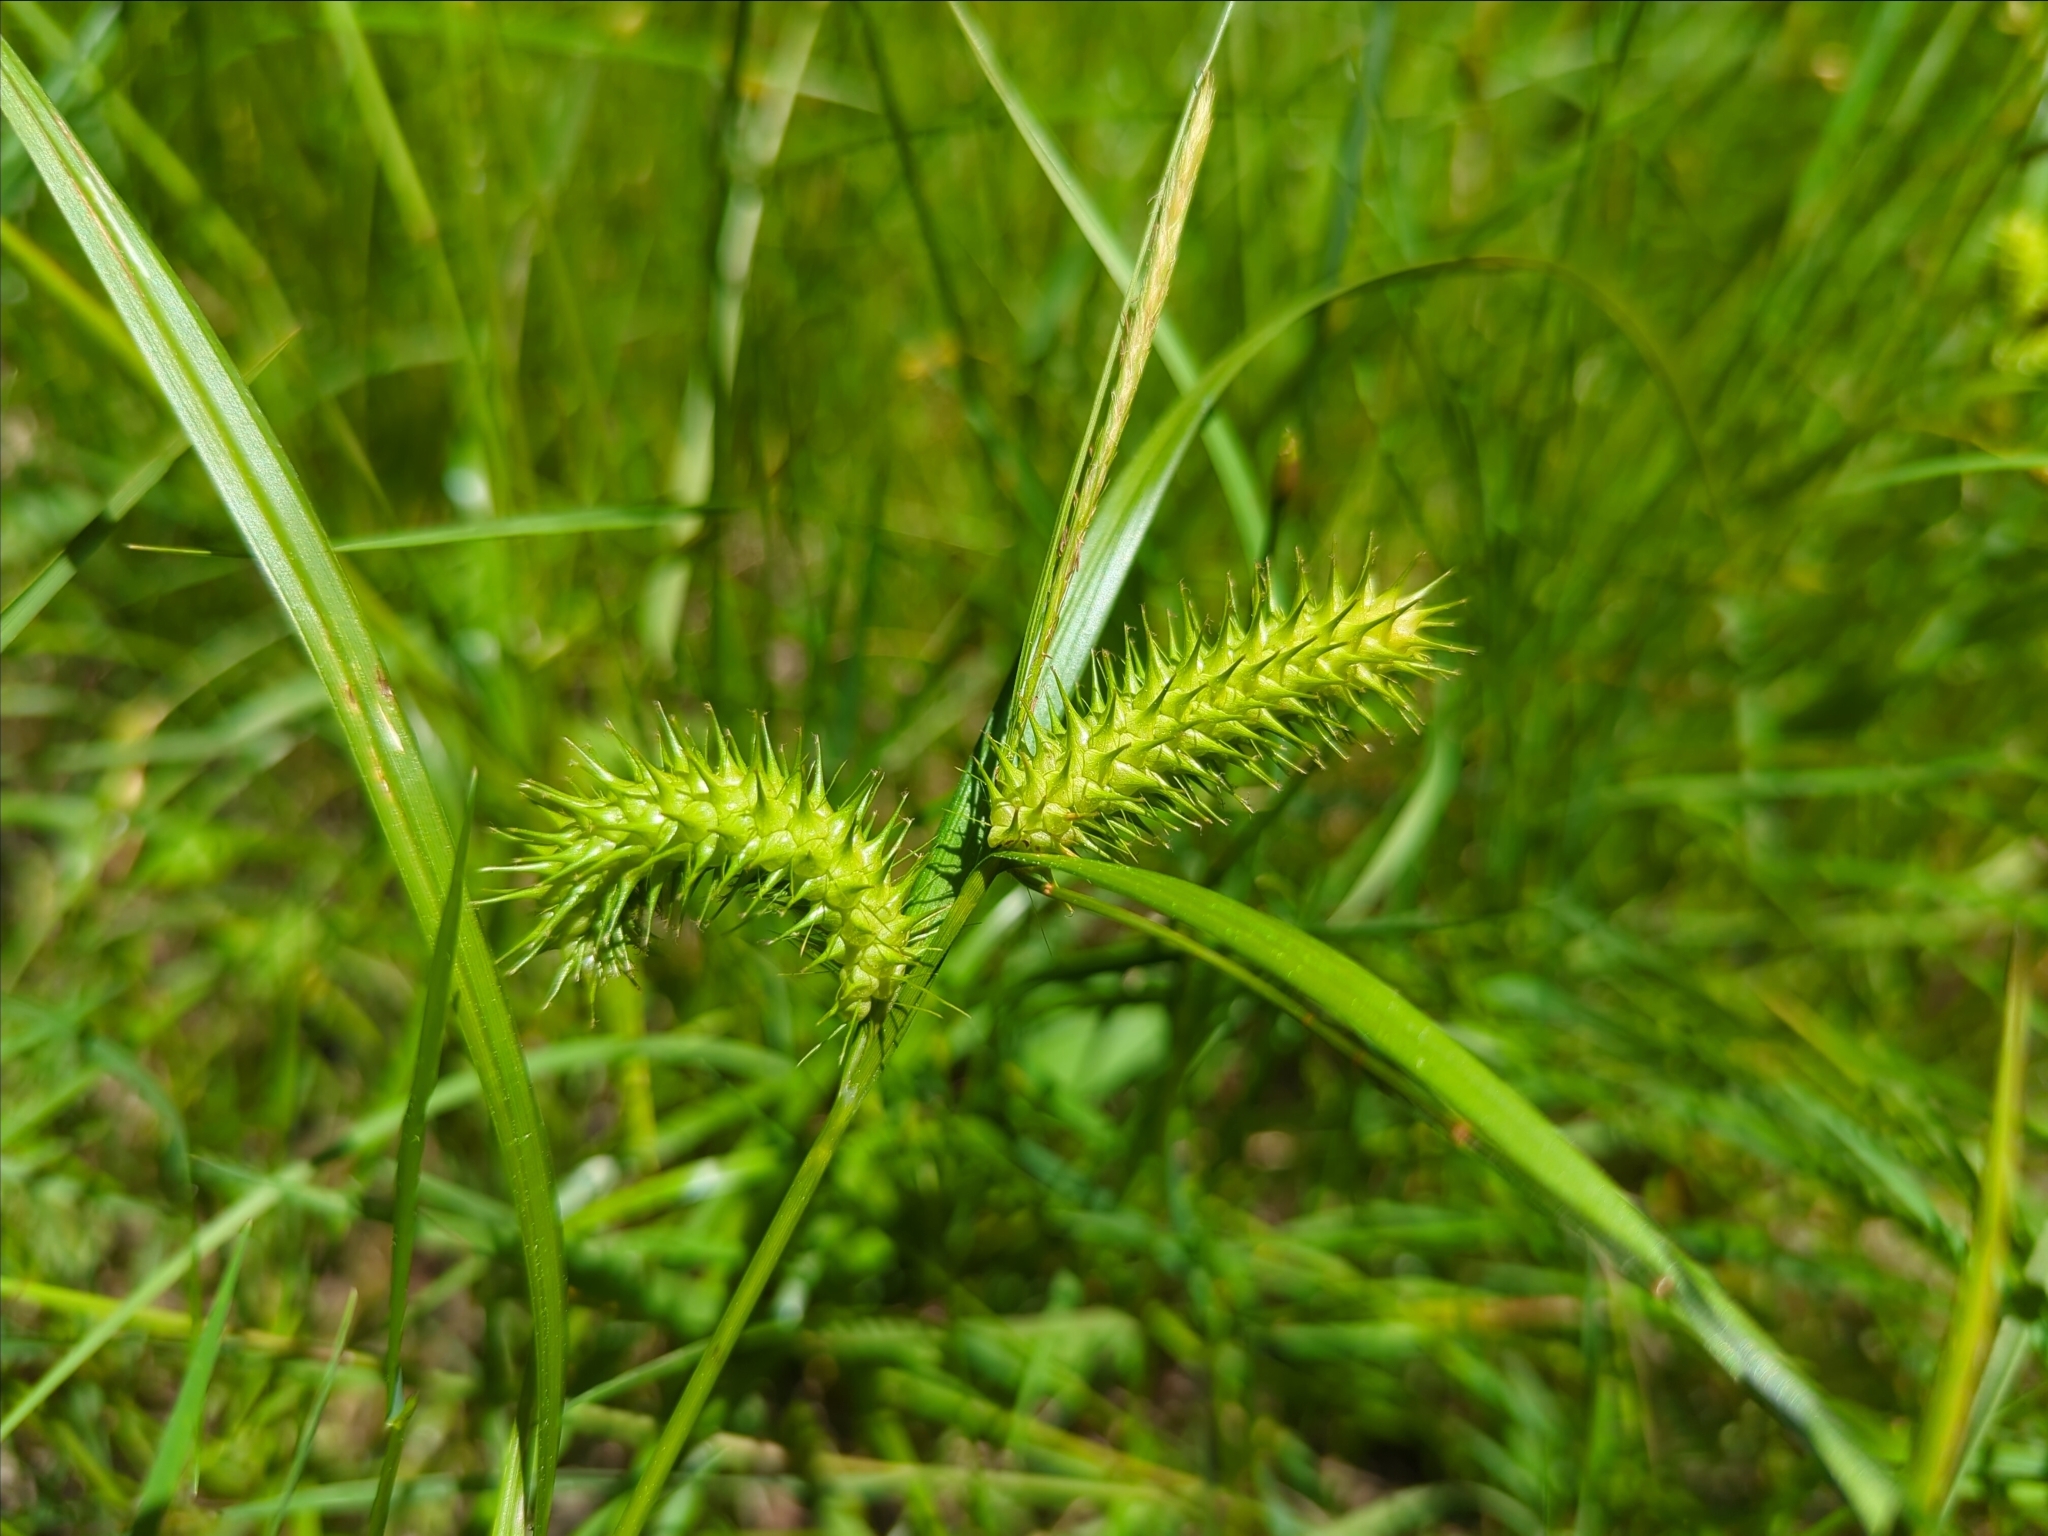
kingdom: Plantae
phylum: Tracheophyta
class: Liliopsida
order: Poales
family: Cyperaceae
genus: Carex
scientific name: Carex lurida
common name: Sallow sedge
